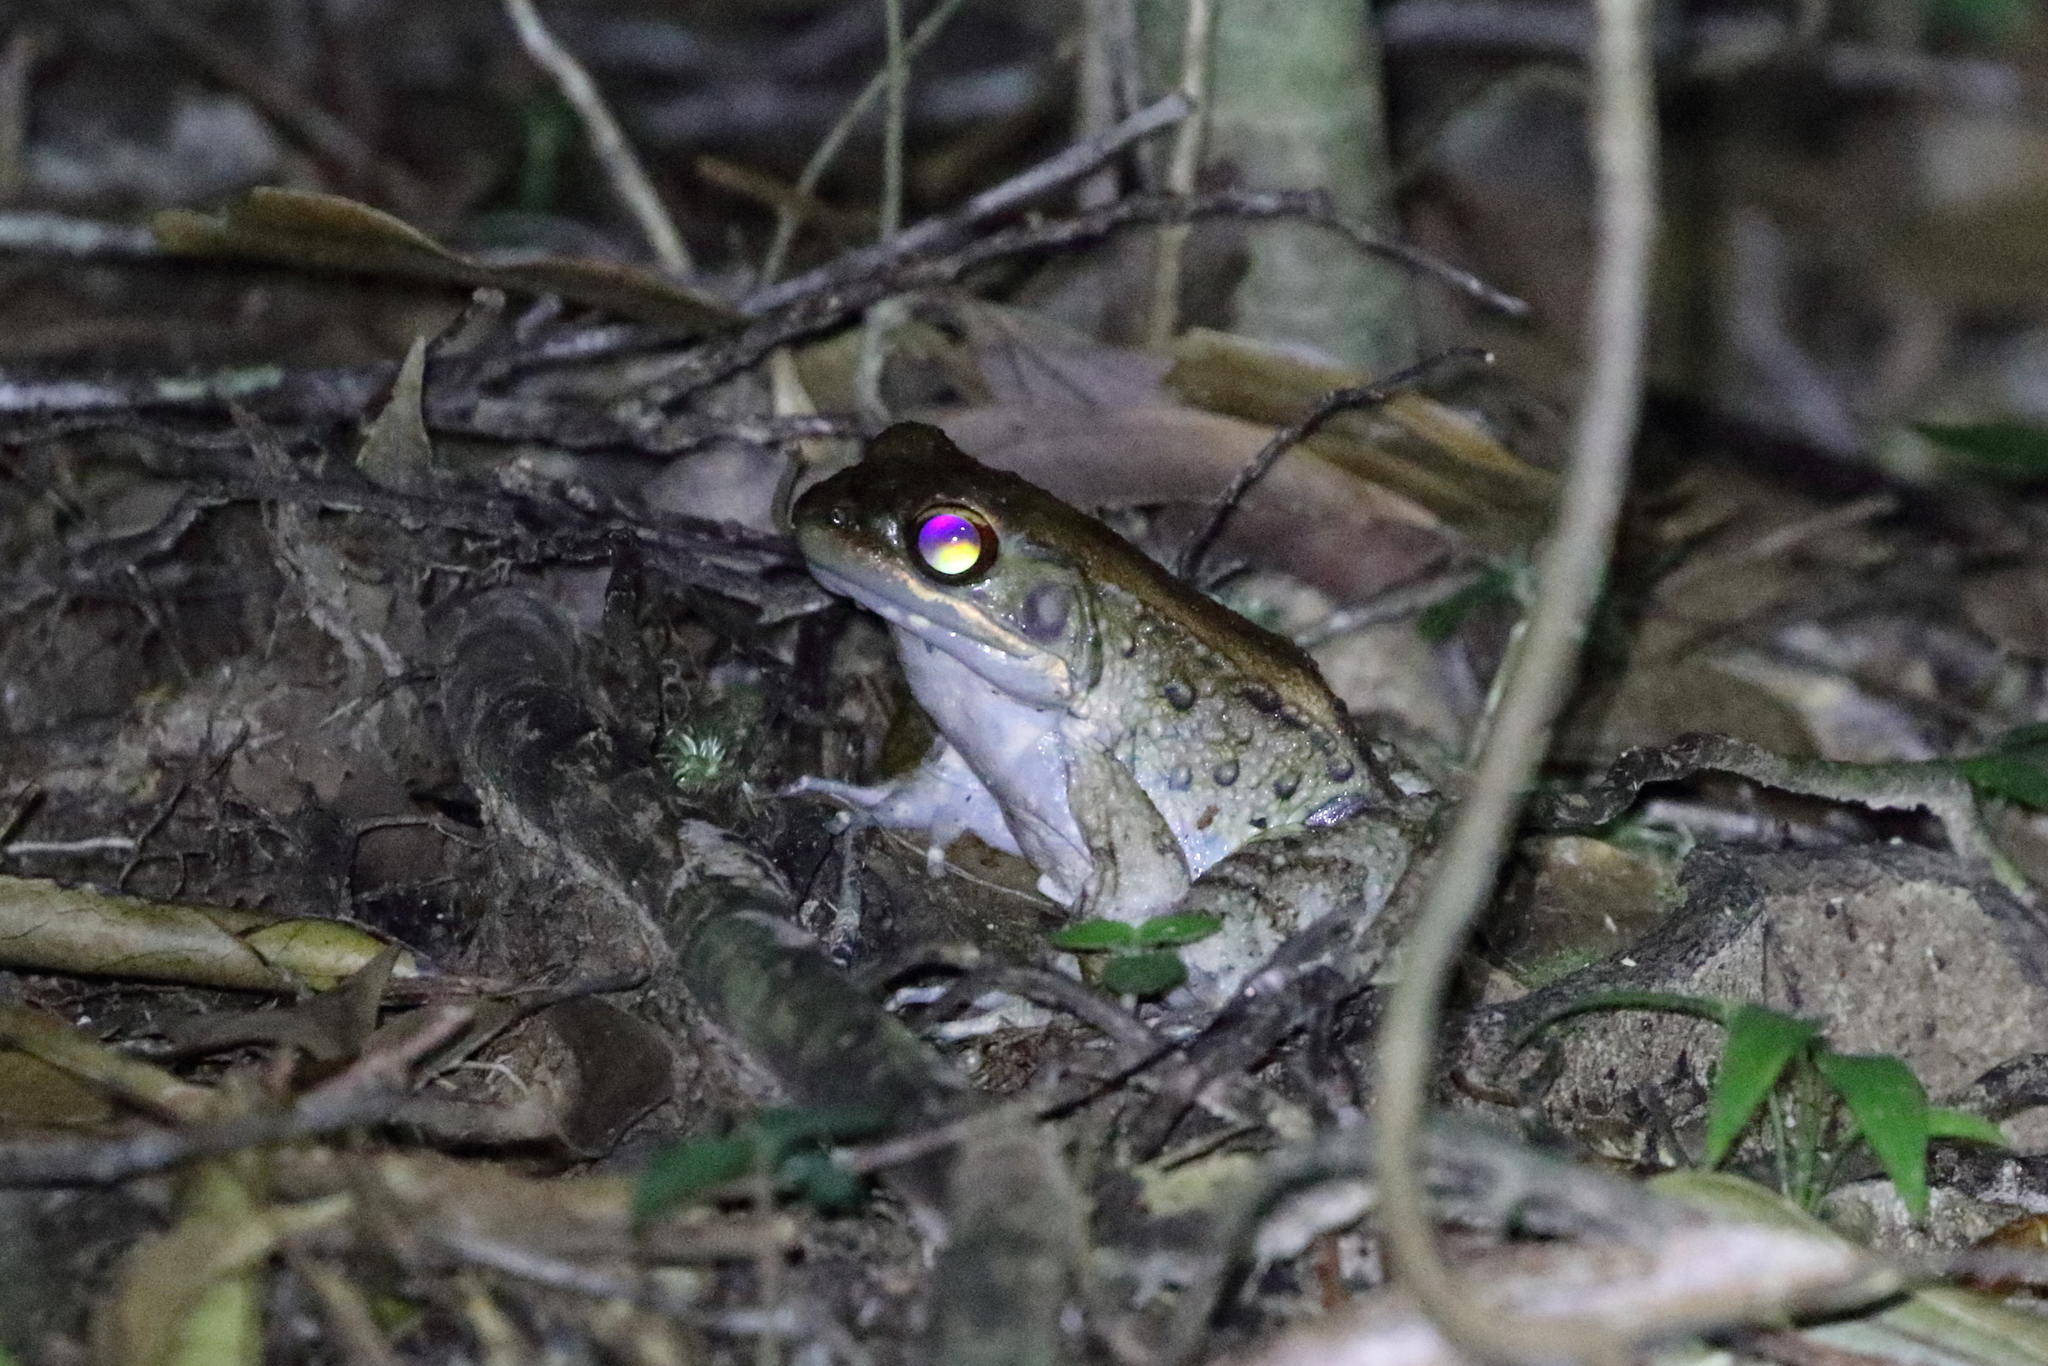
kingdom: Animalia
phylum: Chordata
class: Amphibia
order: Anura
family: Ranidae
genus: Babina
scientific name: Babina holsti
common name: Holst's frog
